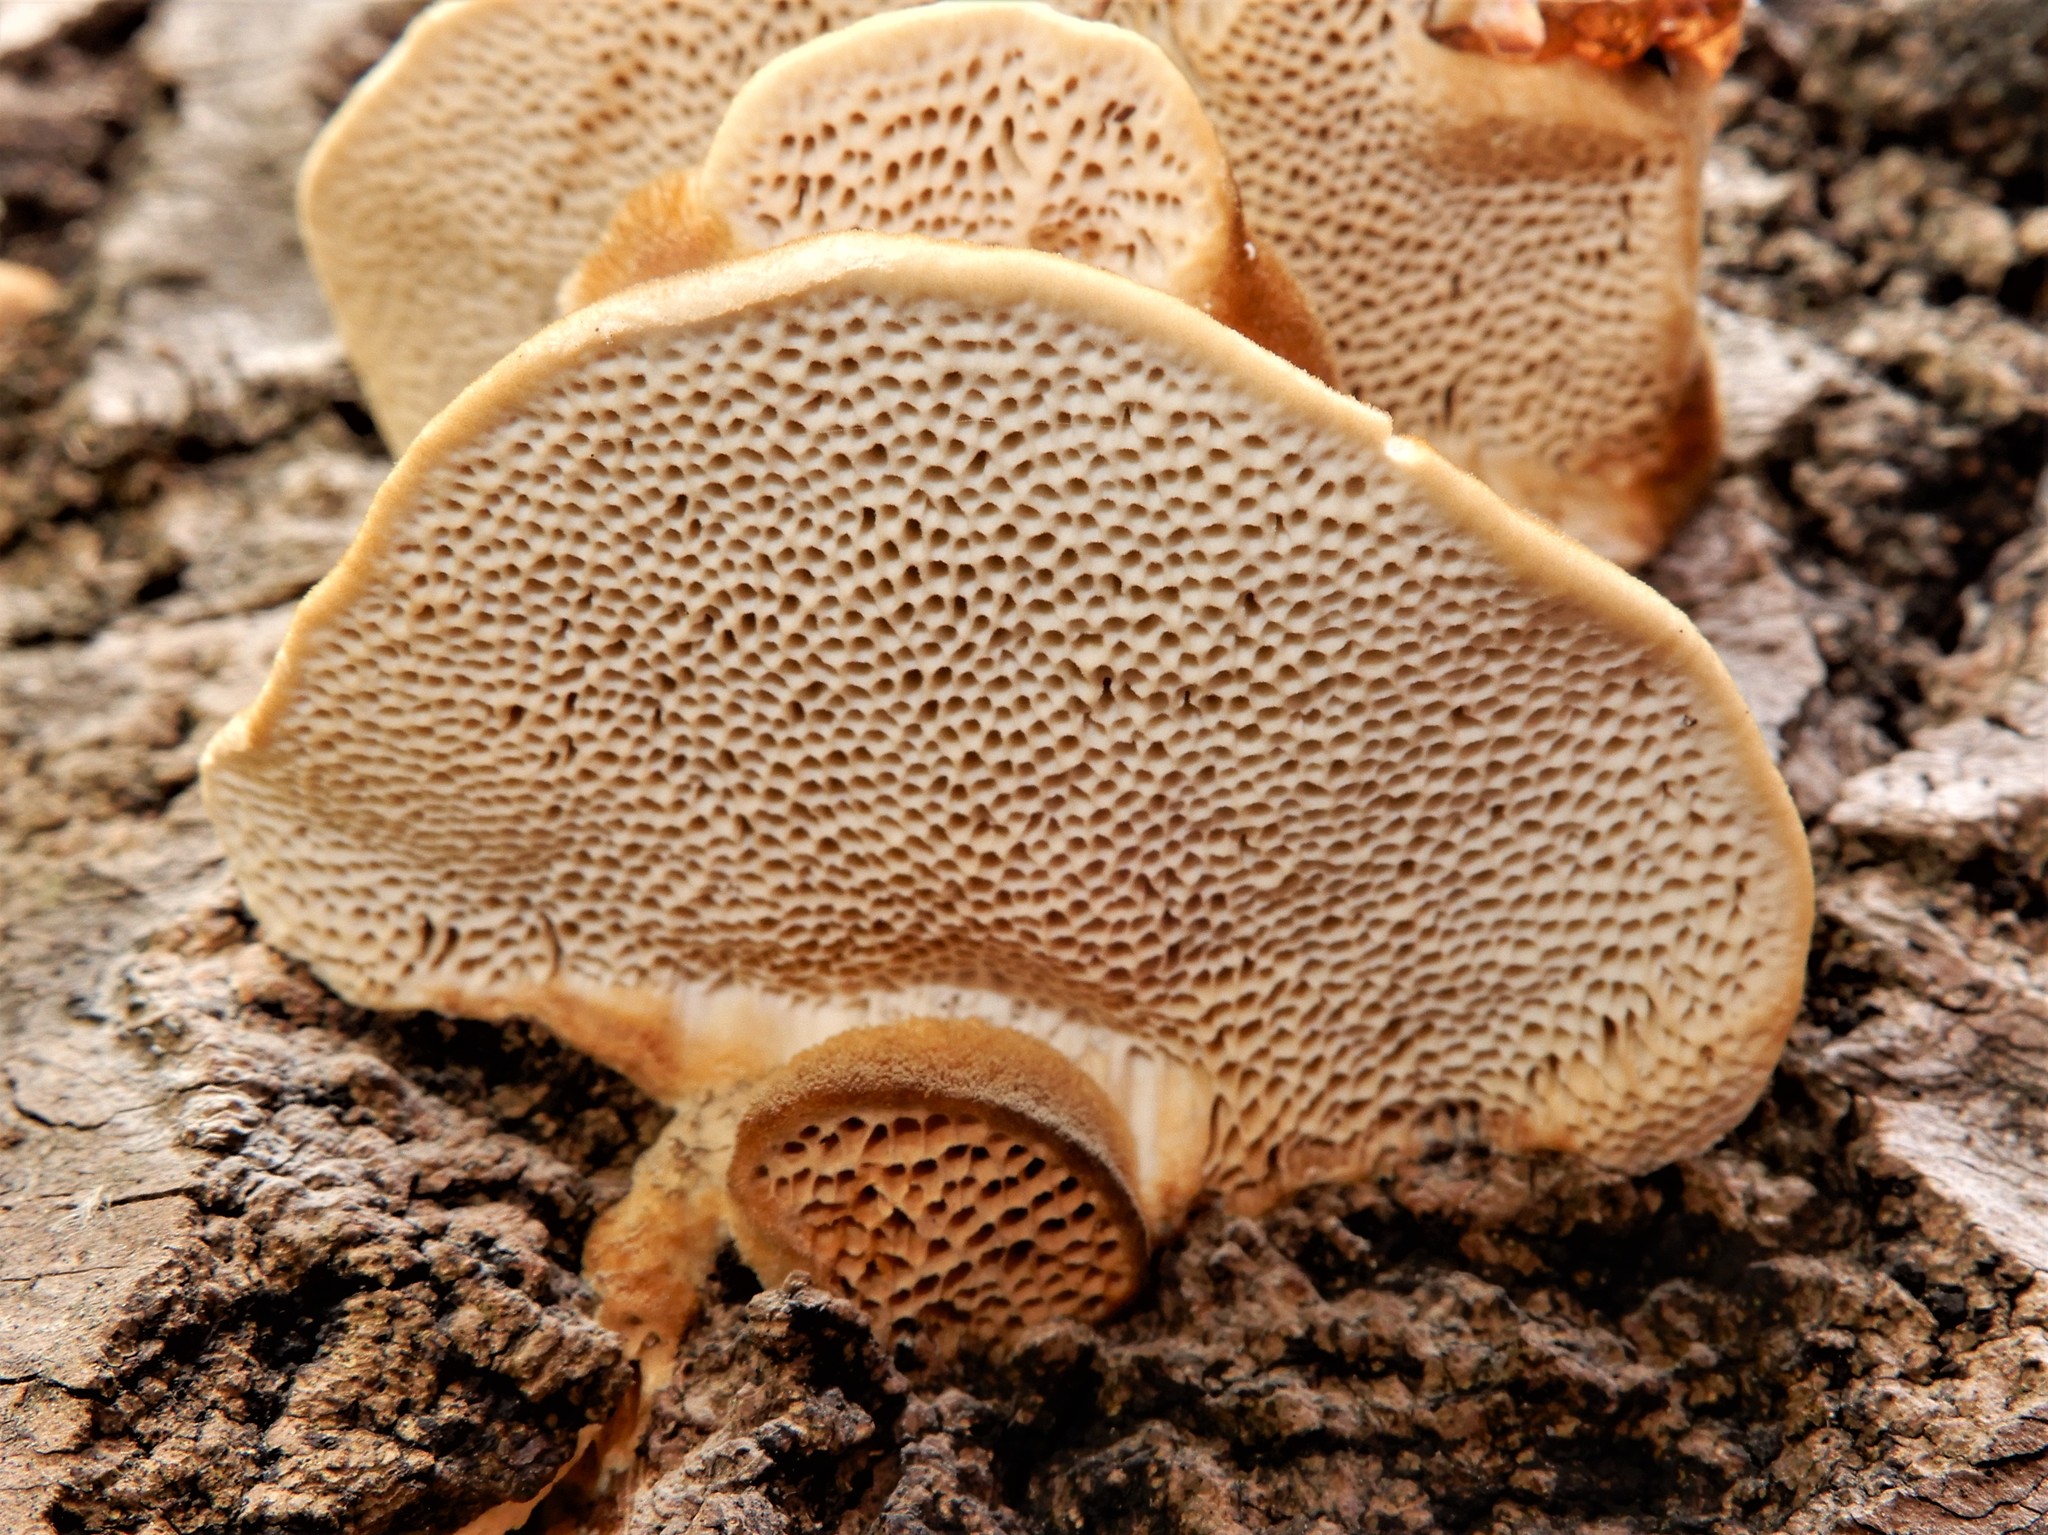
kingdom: Fungi
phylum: Basidiomycota
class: Agaricomycetes
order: Polyporales
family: Polyporaceae
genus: Trametes
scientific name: Trametes trogii
